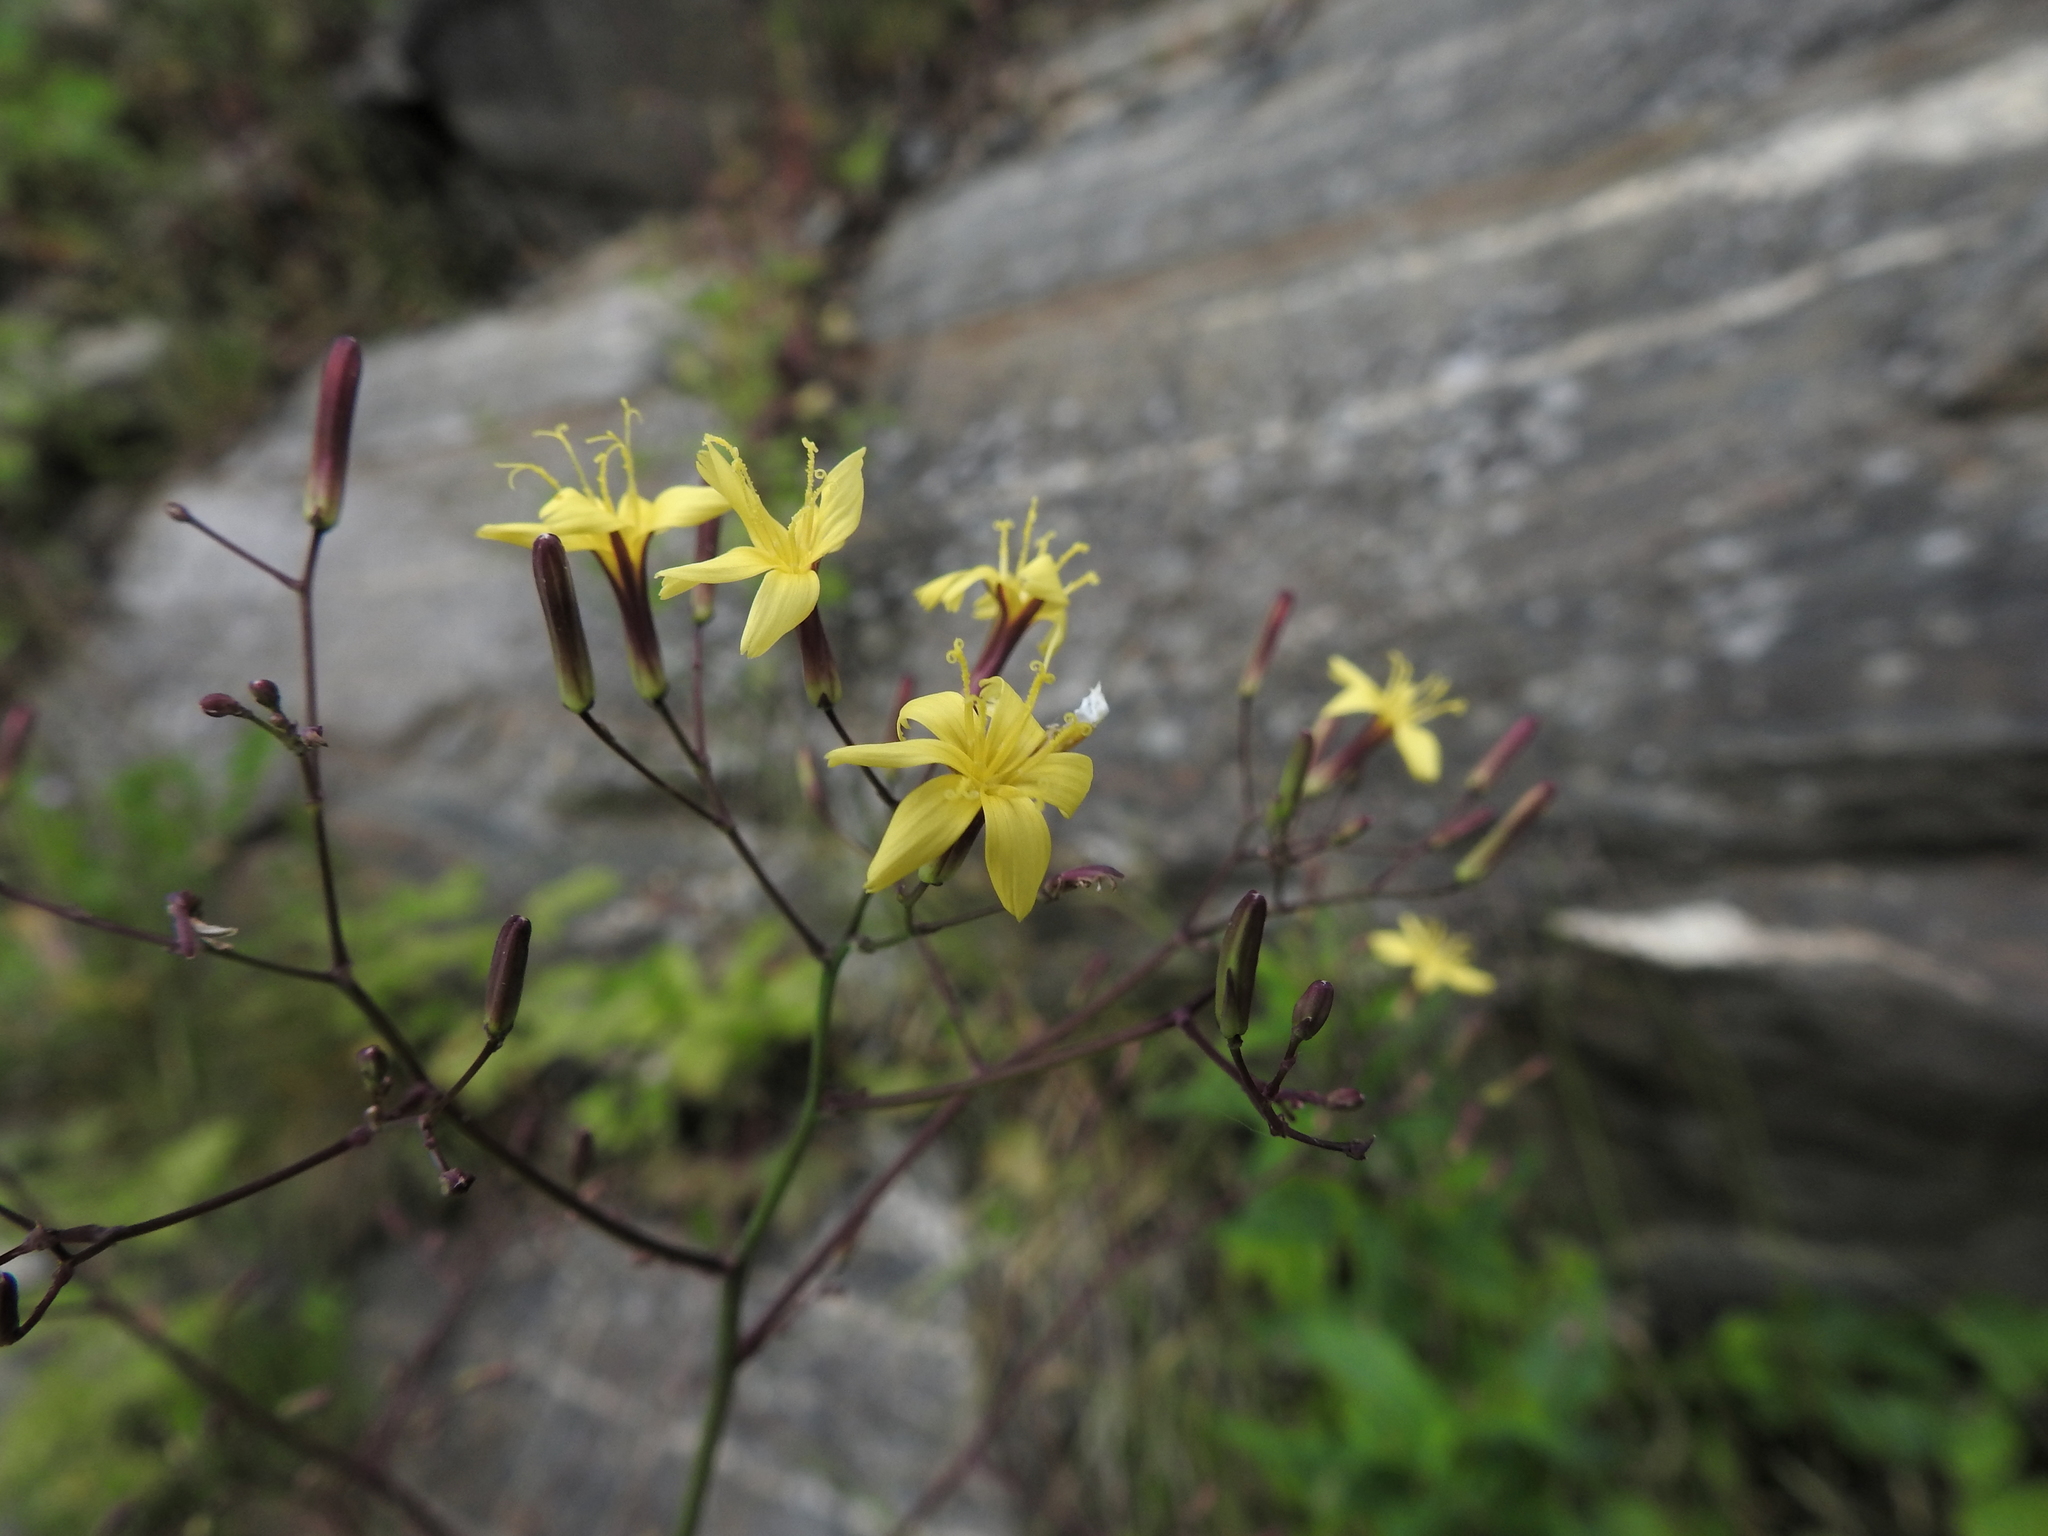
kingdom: Plantae
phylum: Tracheophyta
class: Magnoliopsida
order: Asterales
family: Asteraceae
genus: Mycelis
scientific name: Mycelis muralis
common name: Wall lettuce
